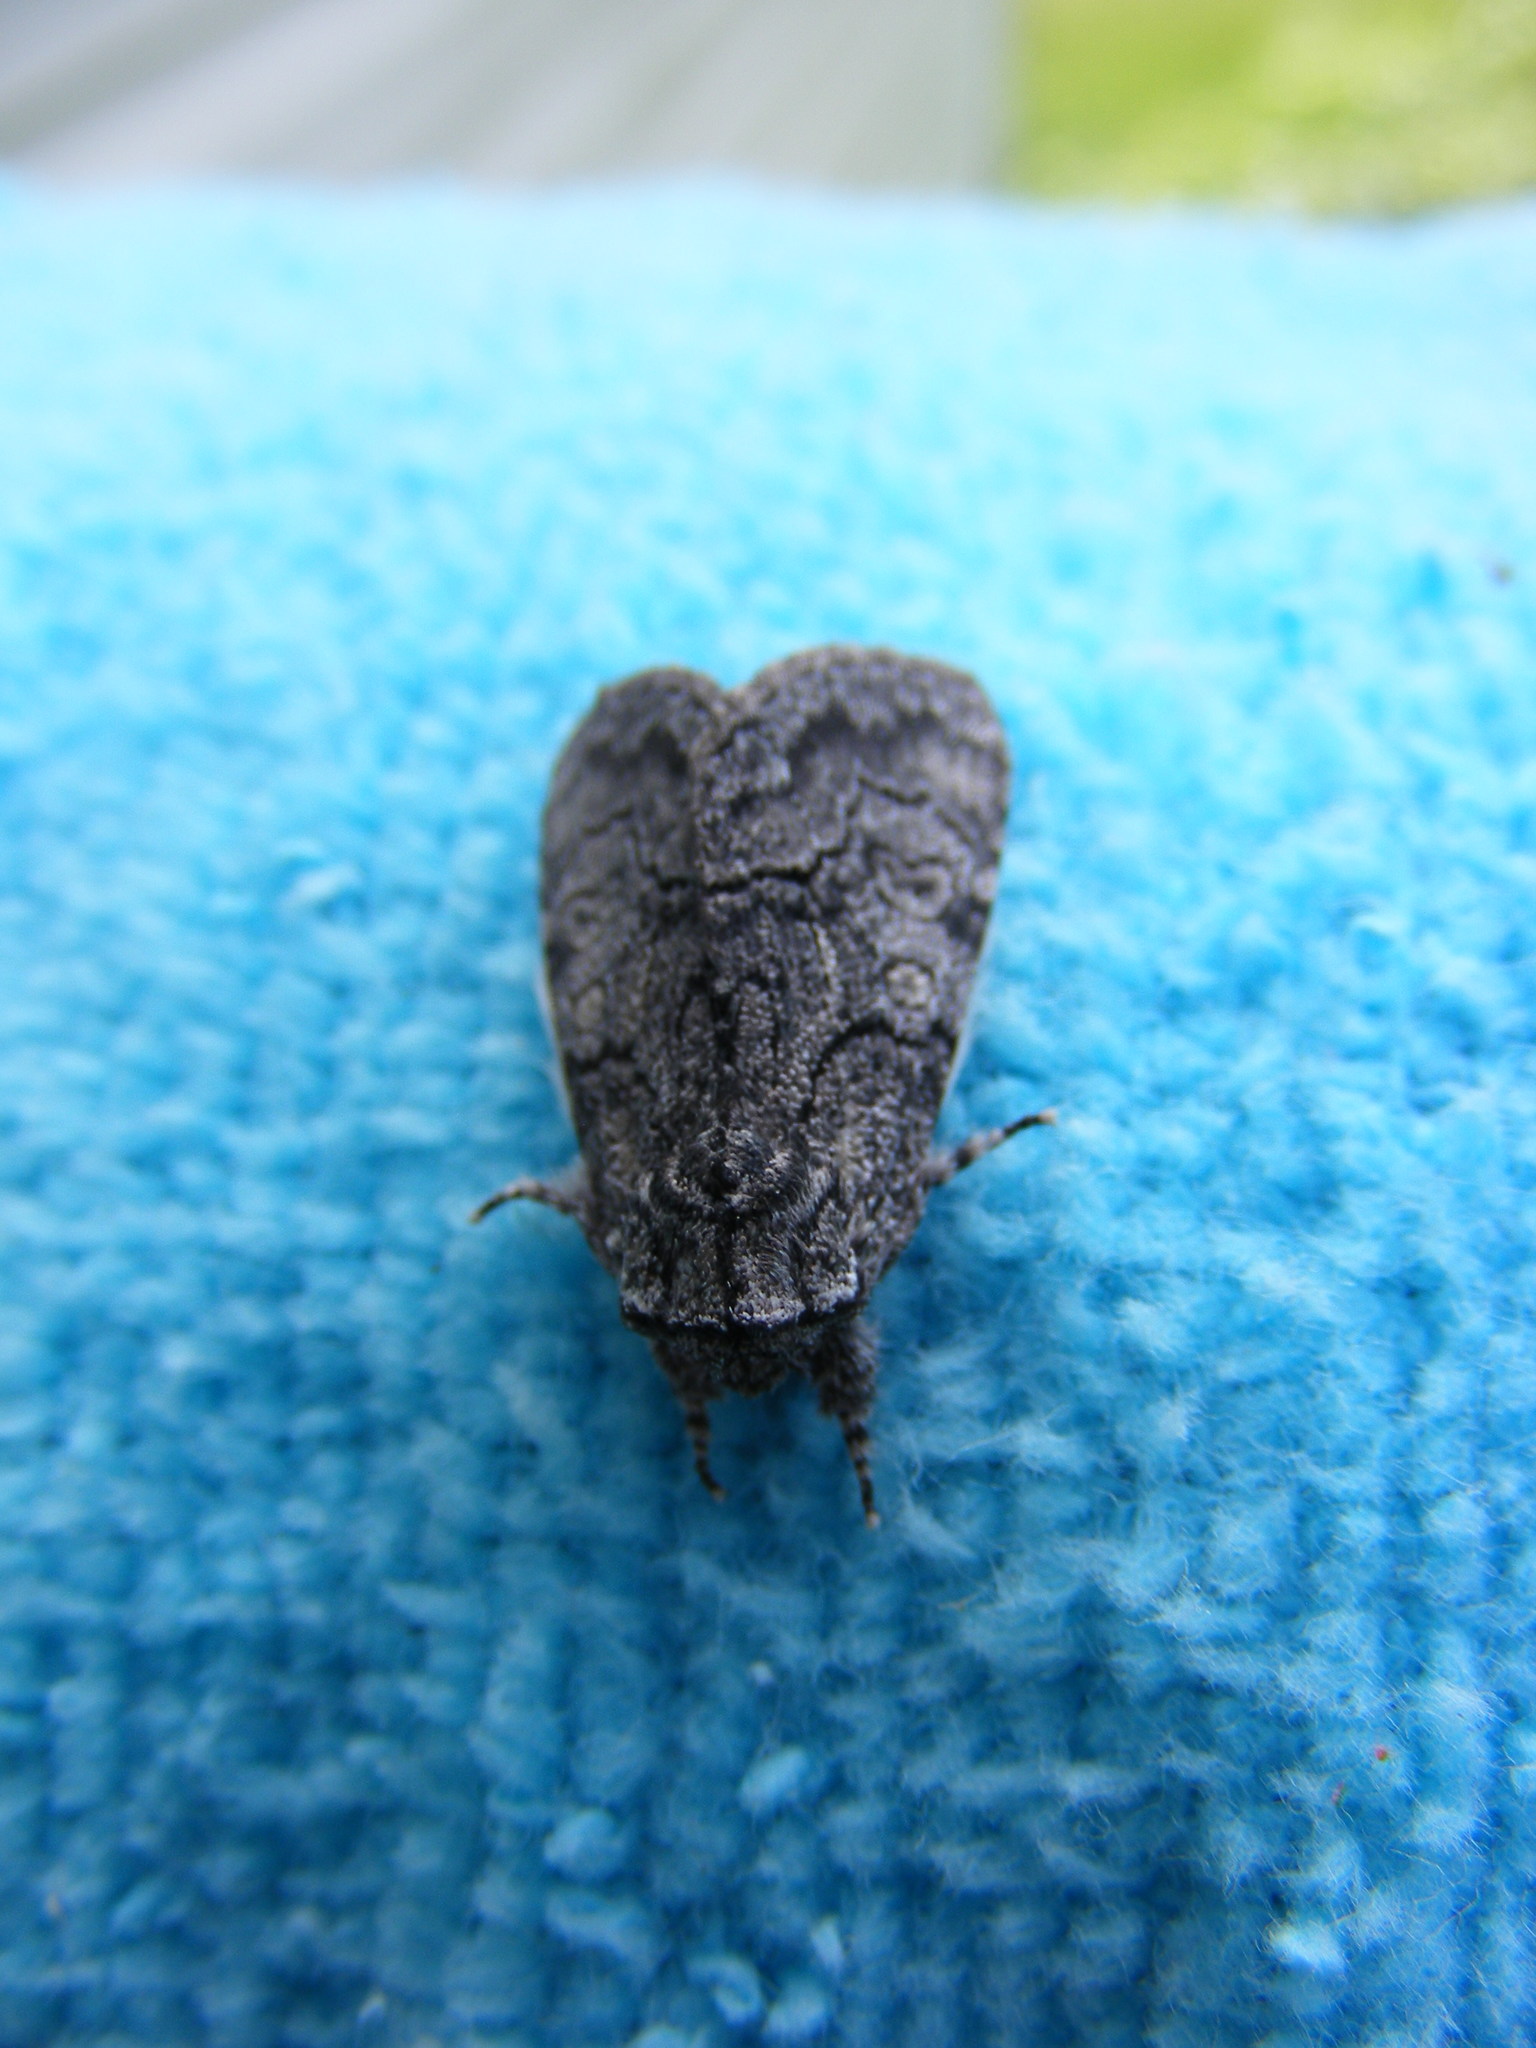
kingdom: Animalia
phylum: Arthropoda
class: Insecta
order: Lepidoptera
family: Noctuidae
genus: Raphia
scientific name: Raphia frater
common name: Brother
